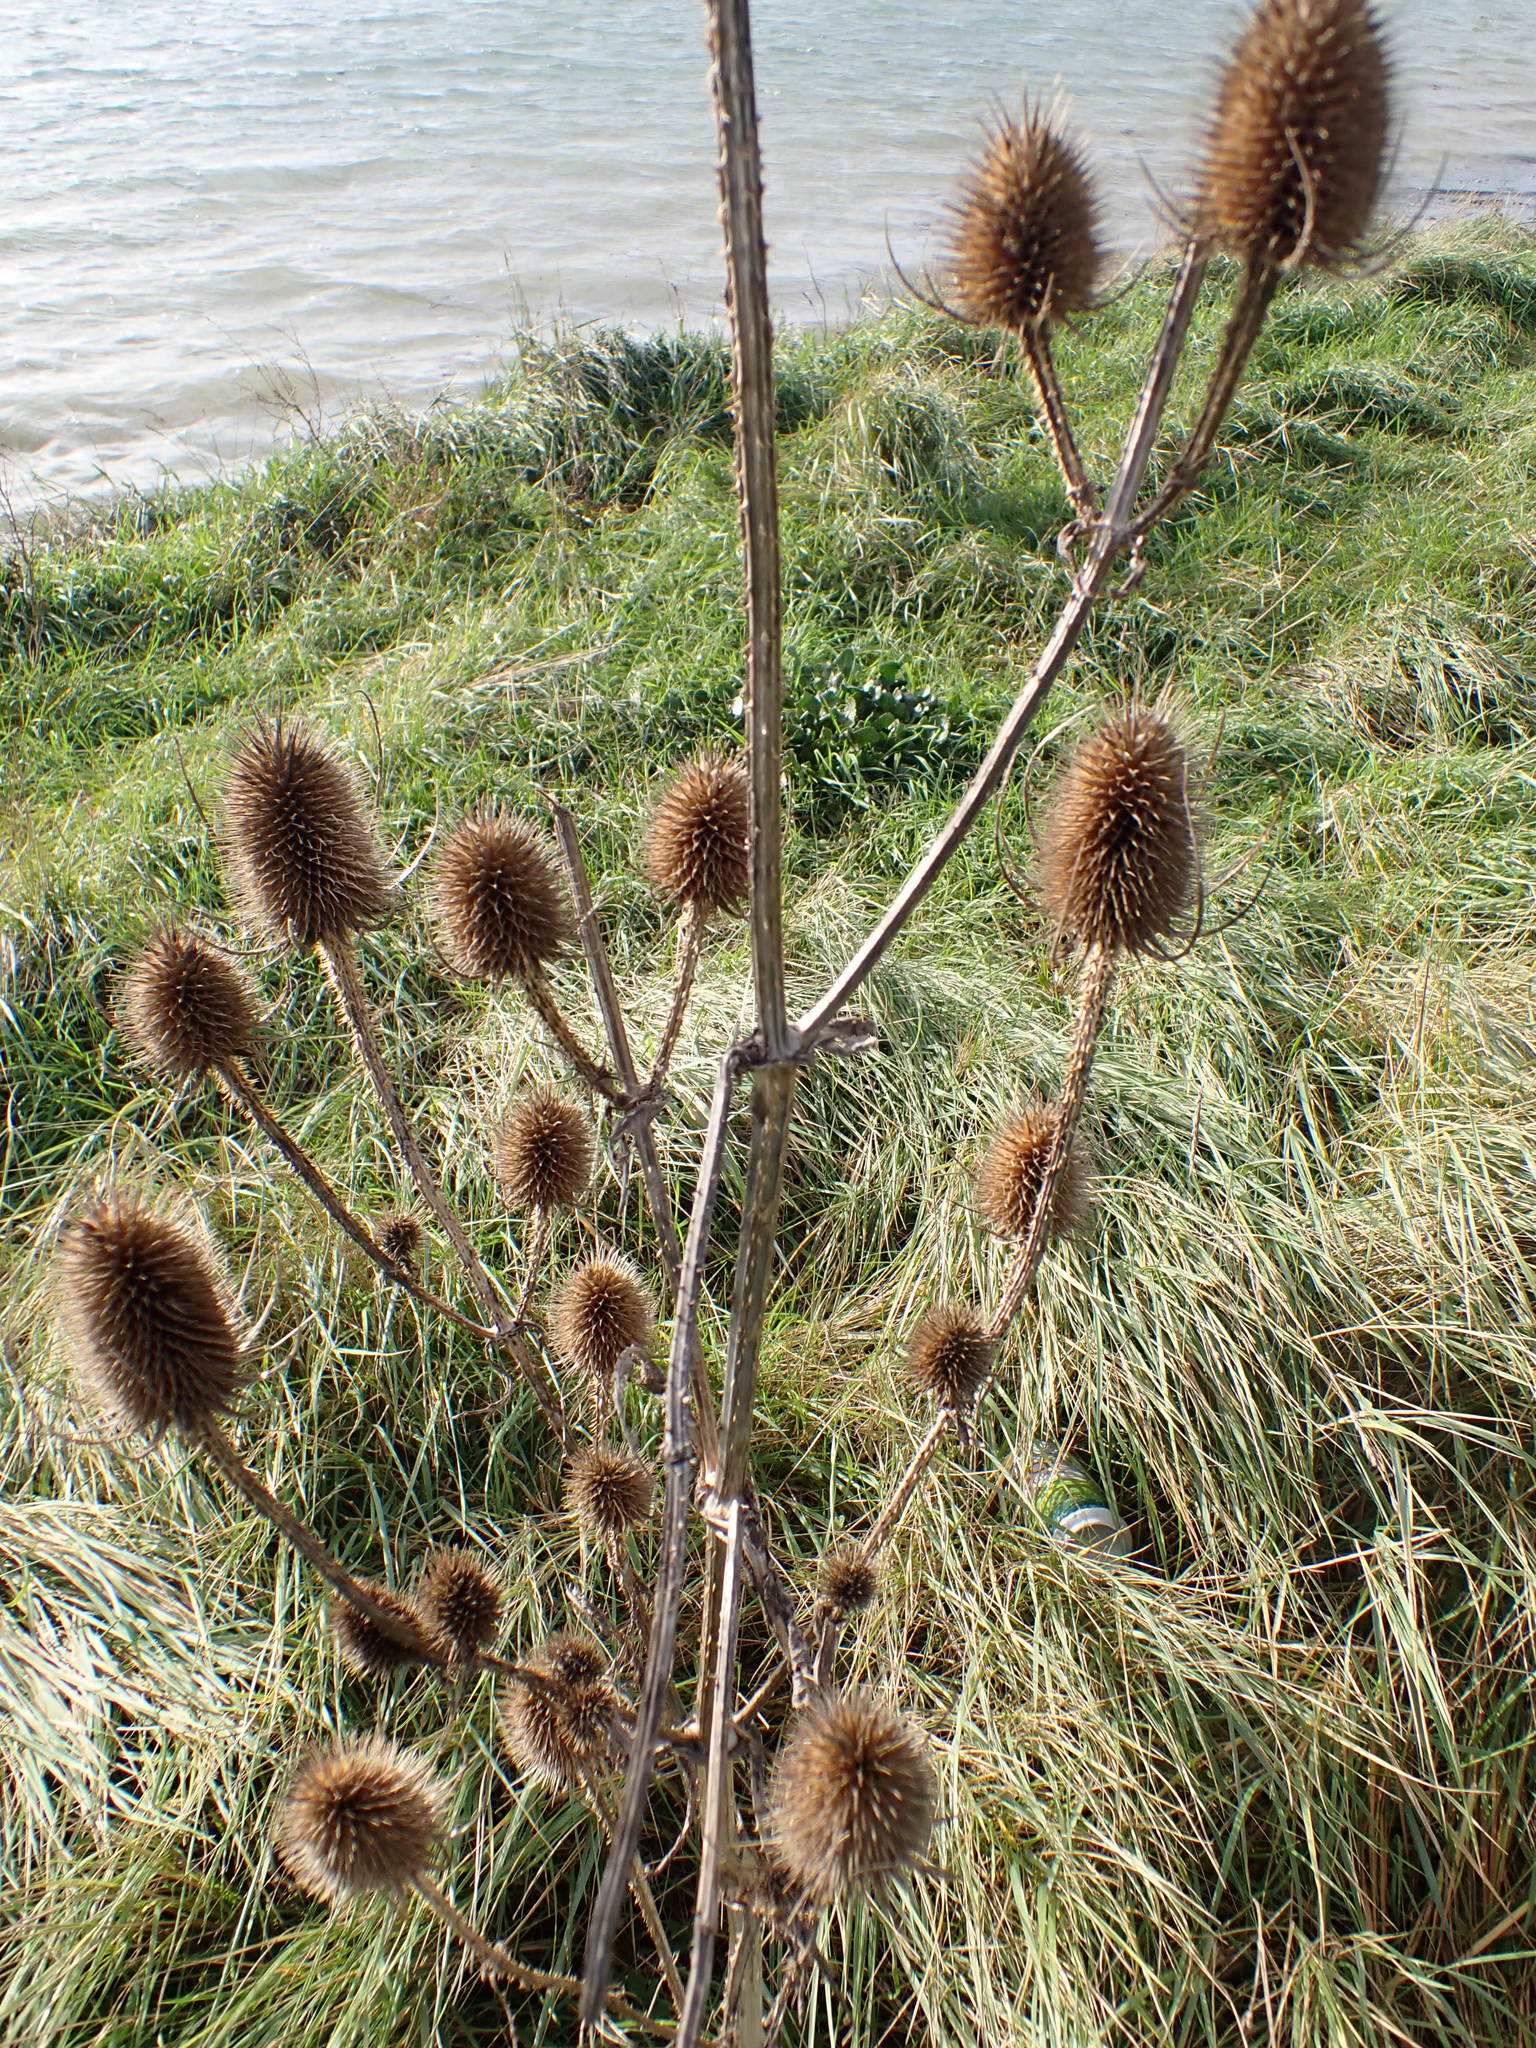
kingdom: Plantae
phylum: Tracheophyta
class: Magnoliopsida
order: Dipsacales
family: Caprifoliaceae
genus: Dipsacus
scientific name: Dipsacus fullonum
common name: Teasel
